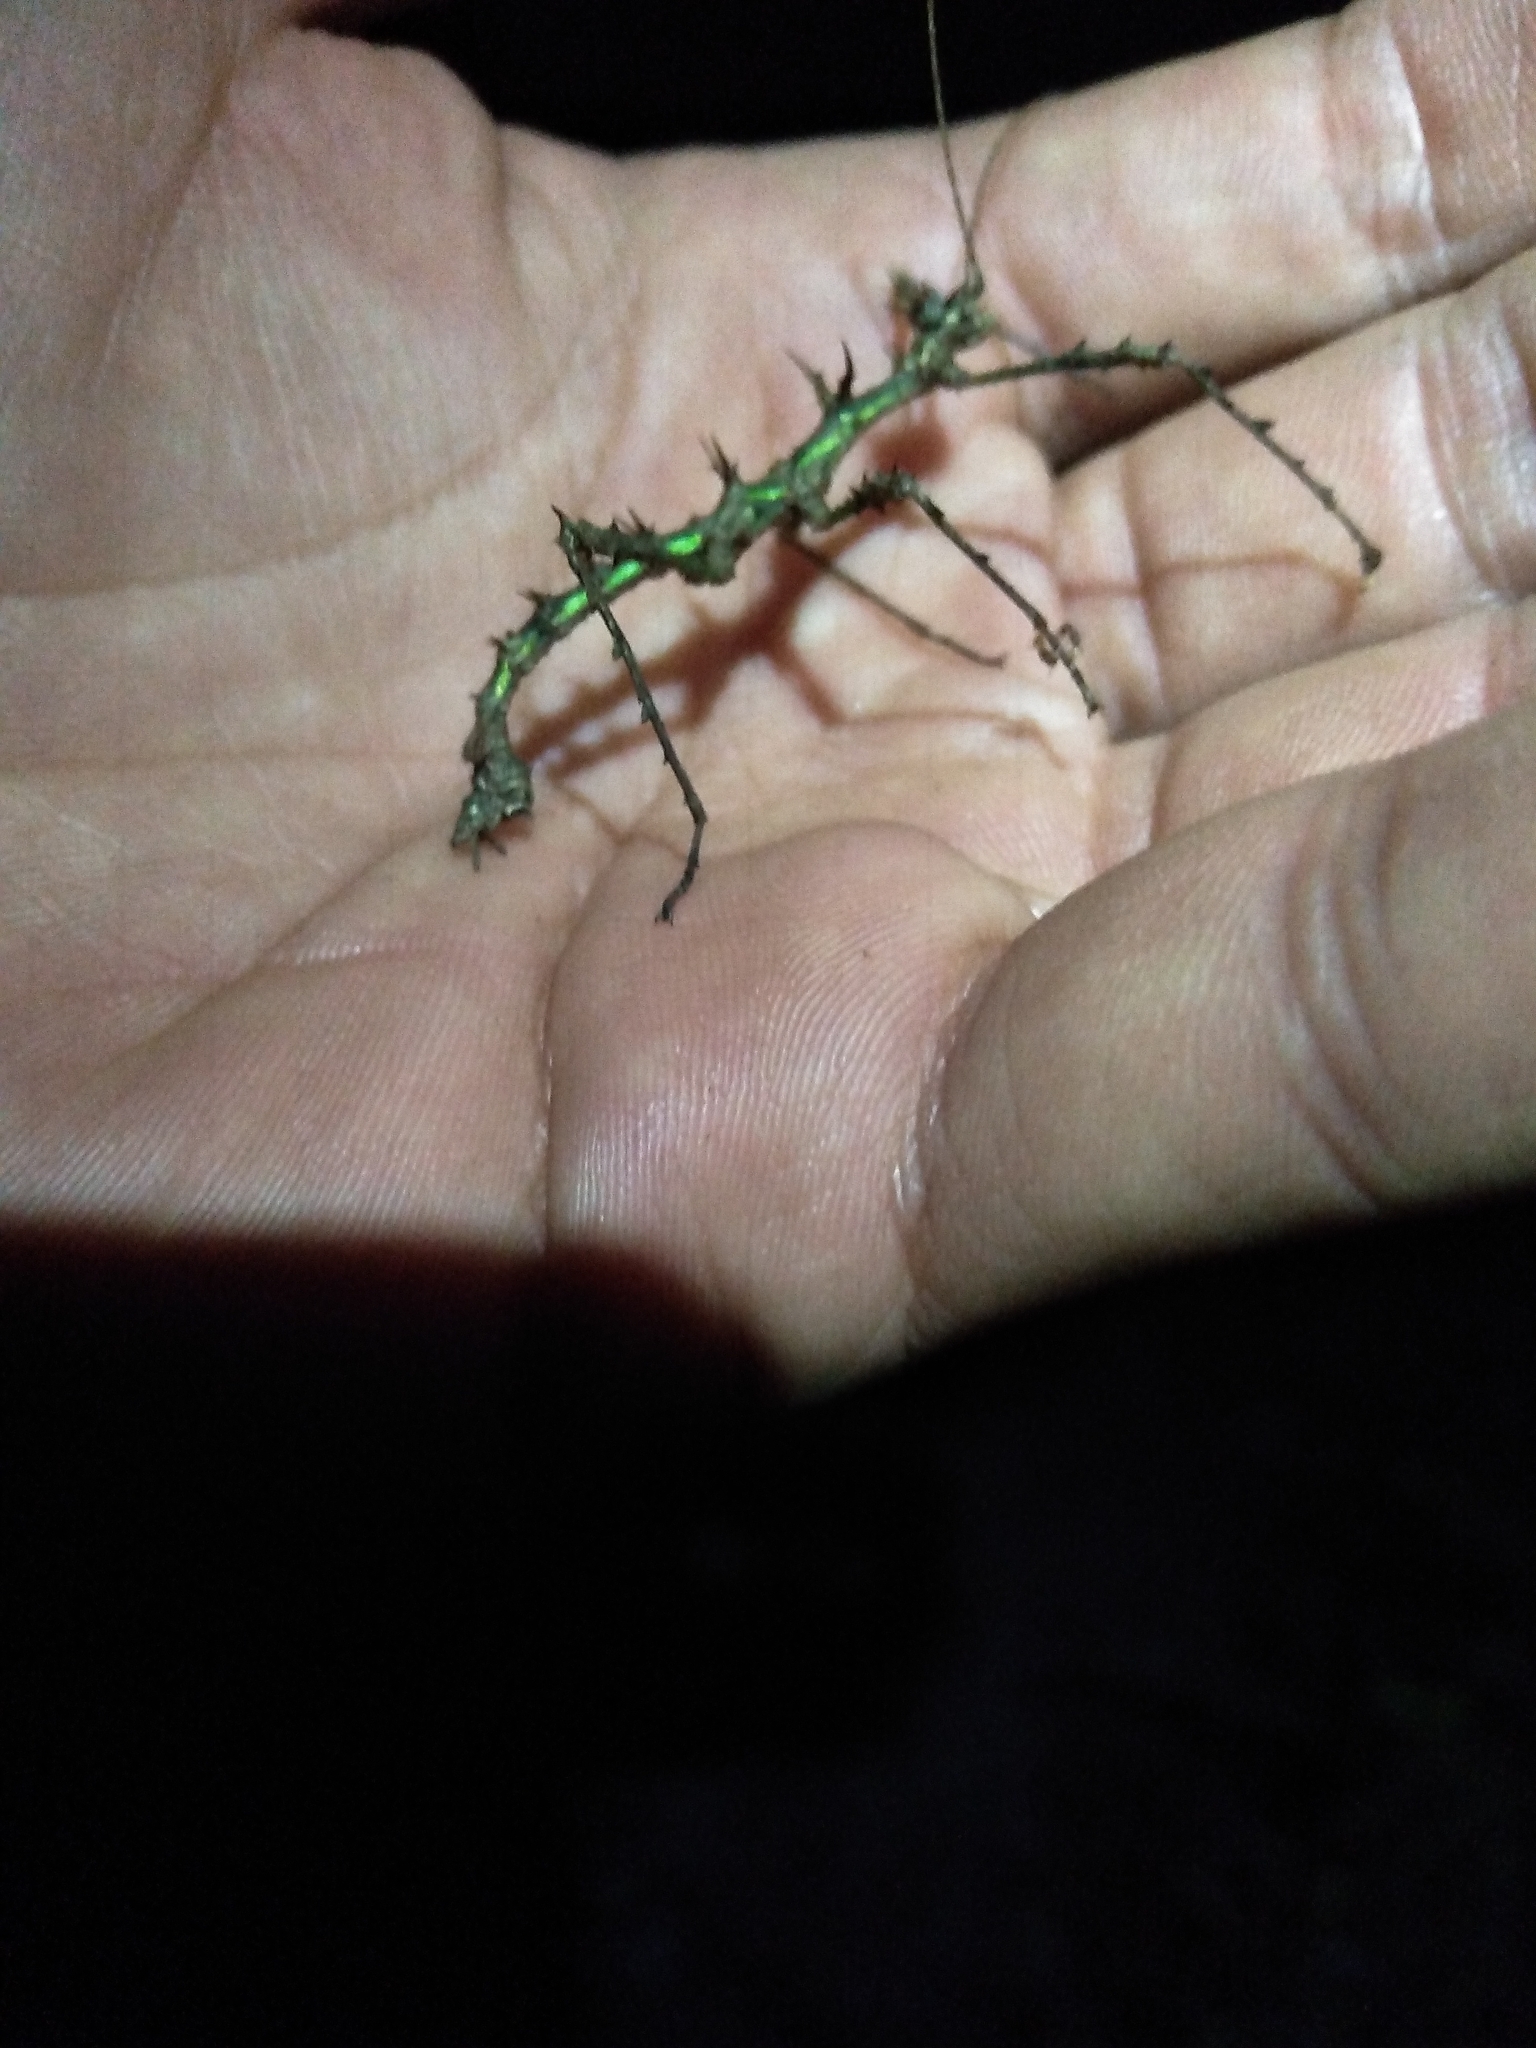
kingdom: Animalia
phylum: Arthropoda
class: Insecta
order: Phasmida
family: Phasmatidae
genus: Taraxippus
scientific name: Taraxippus perezgelaberti
